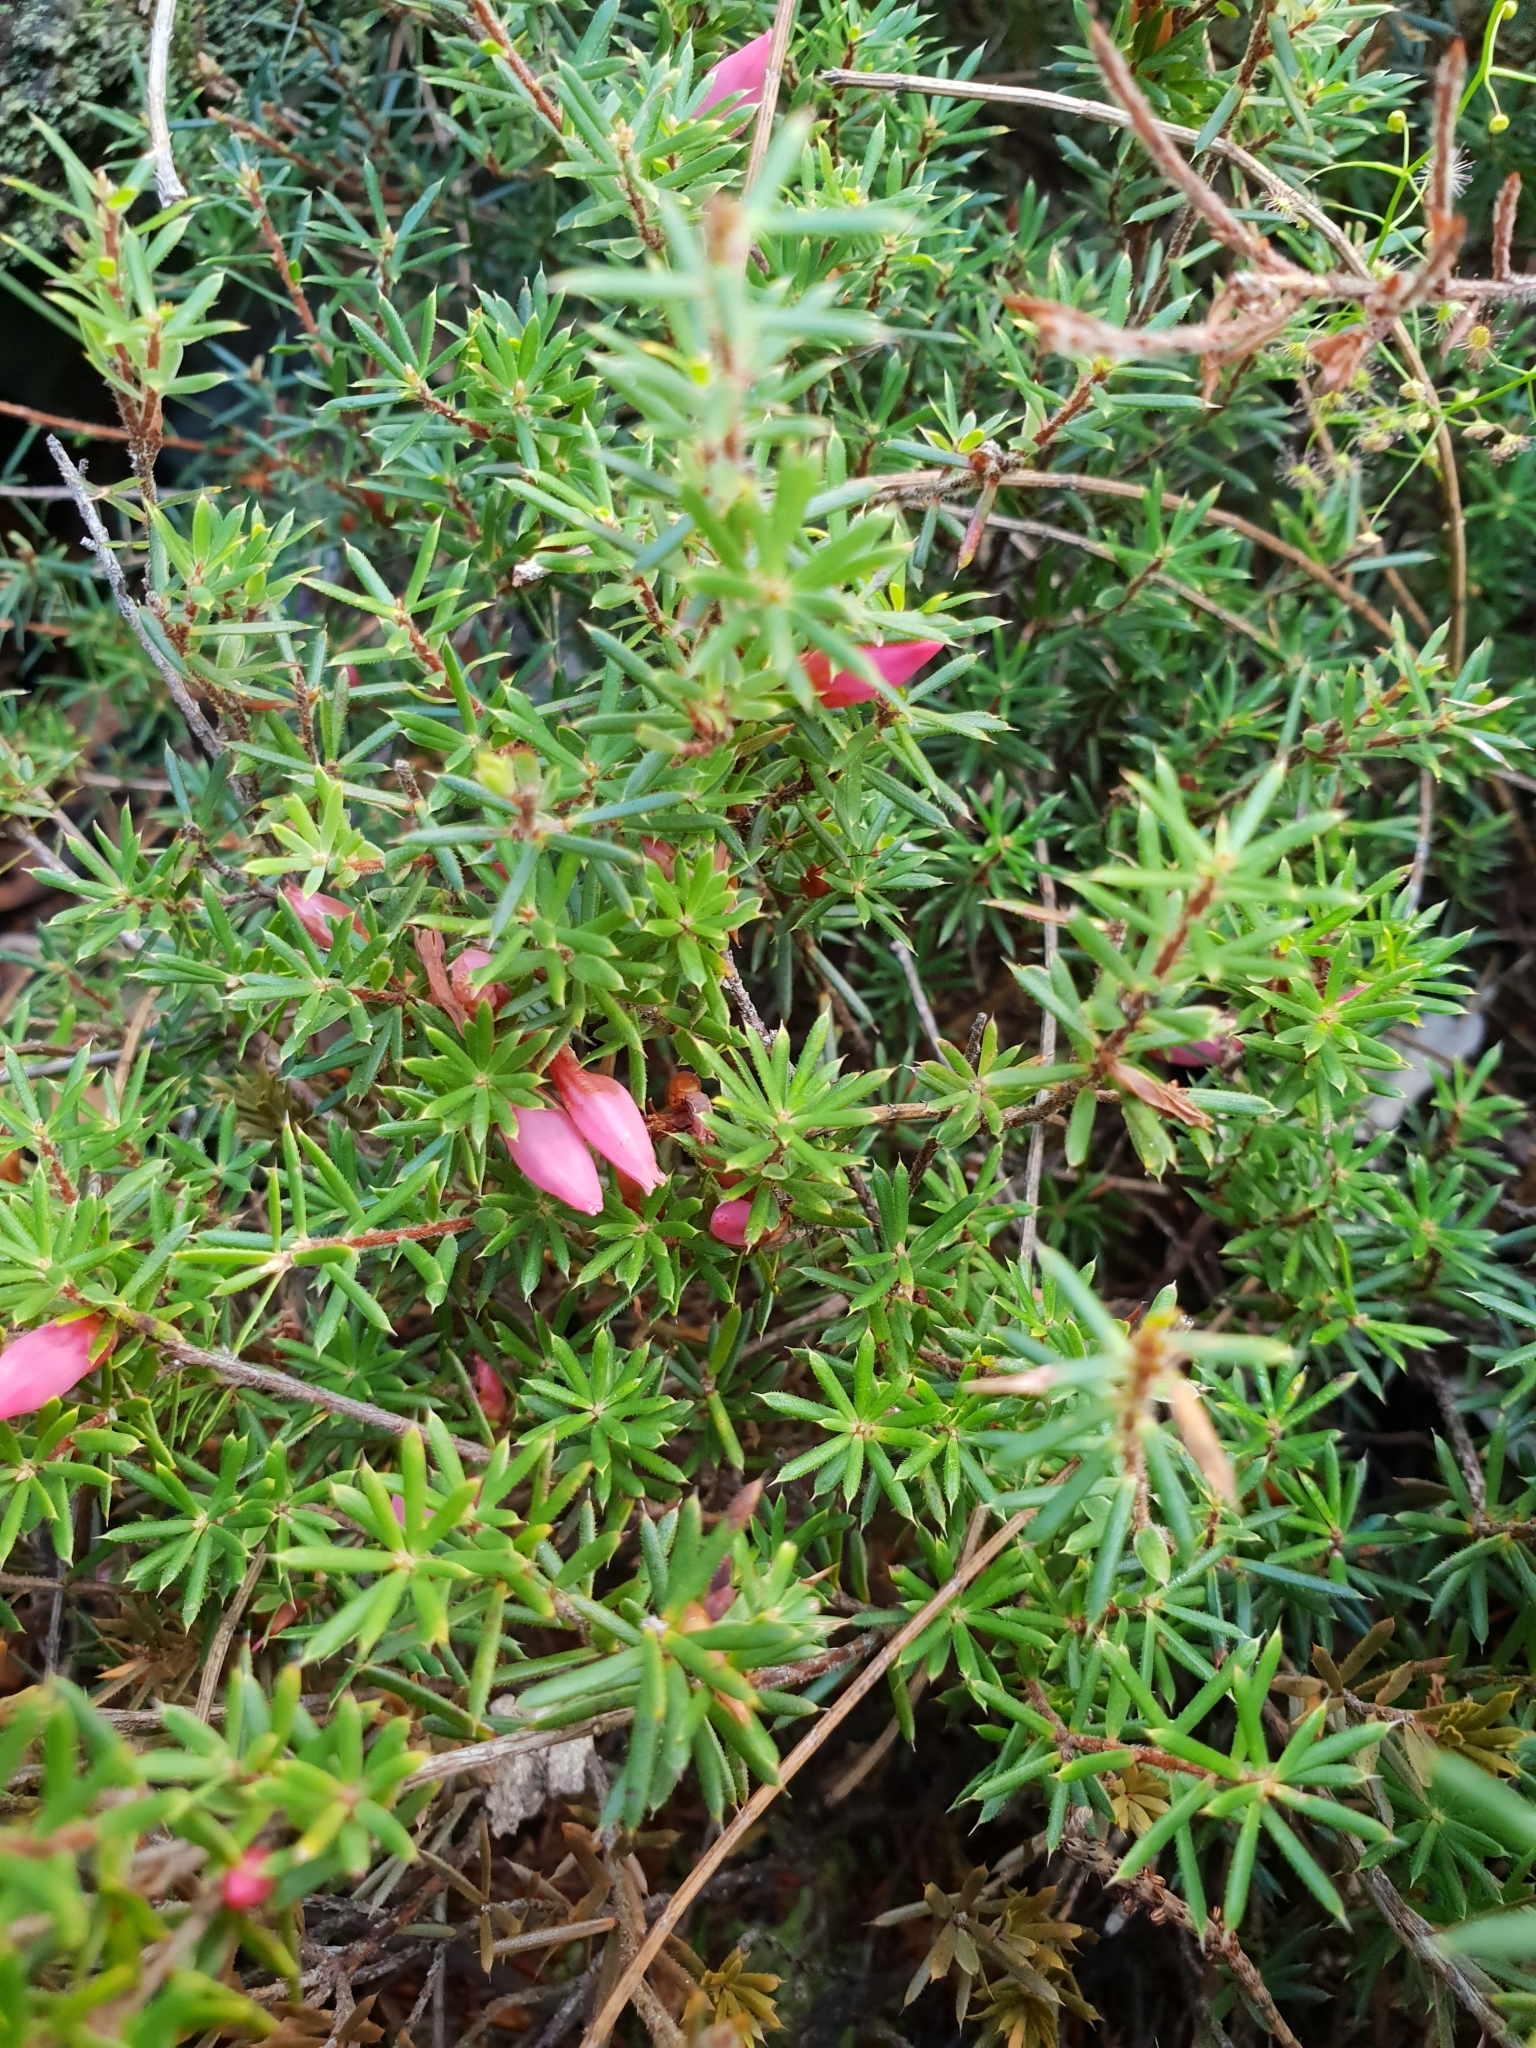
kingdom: Plantae
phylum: Tracheophyta
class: Magnoliopsida
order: Ericales
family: Ericaceae
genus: Styphelia
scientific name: Styphelia erectifolia
